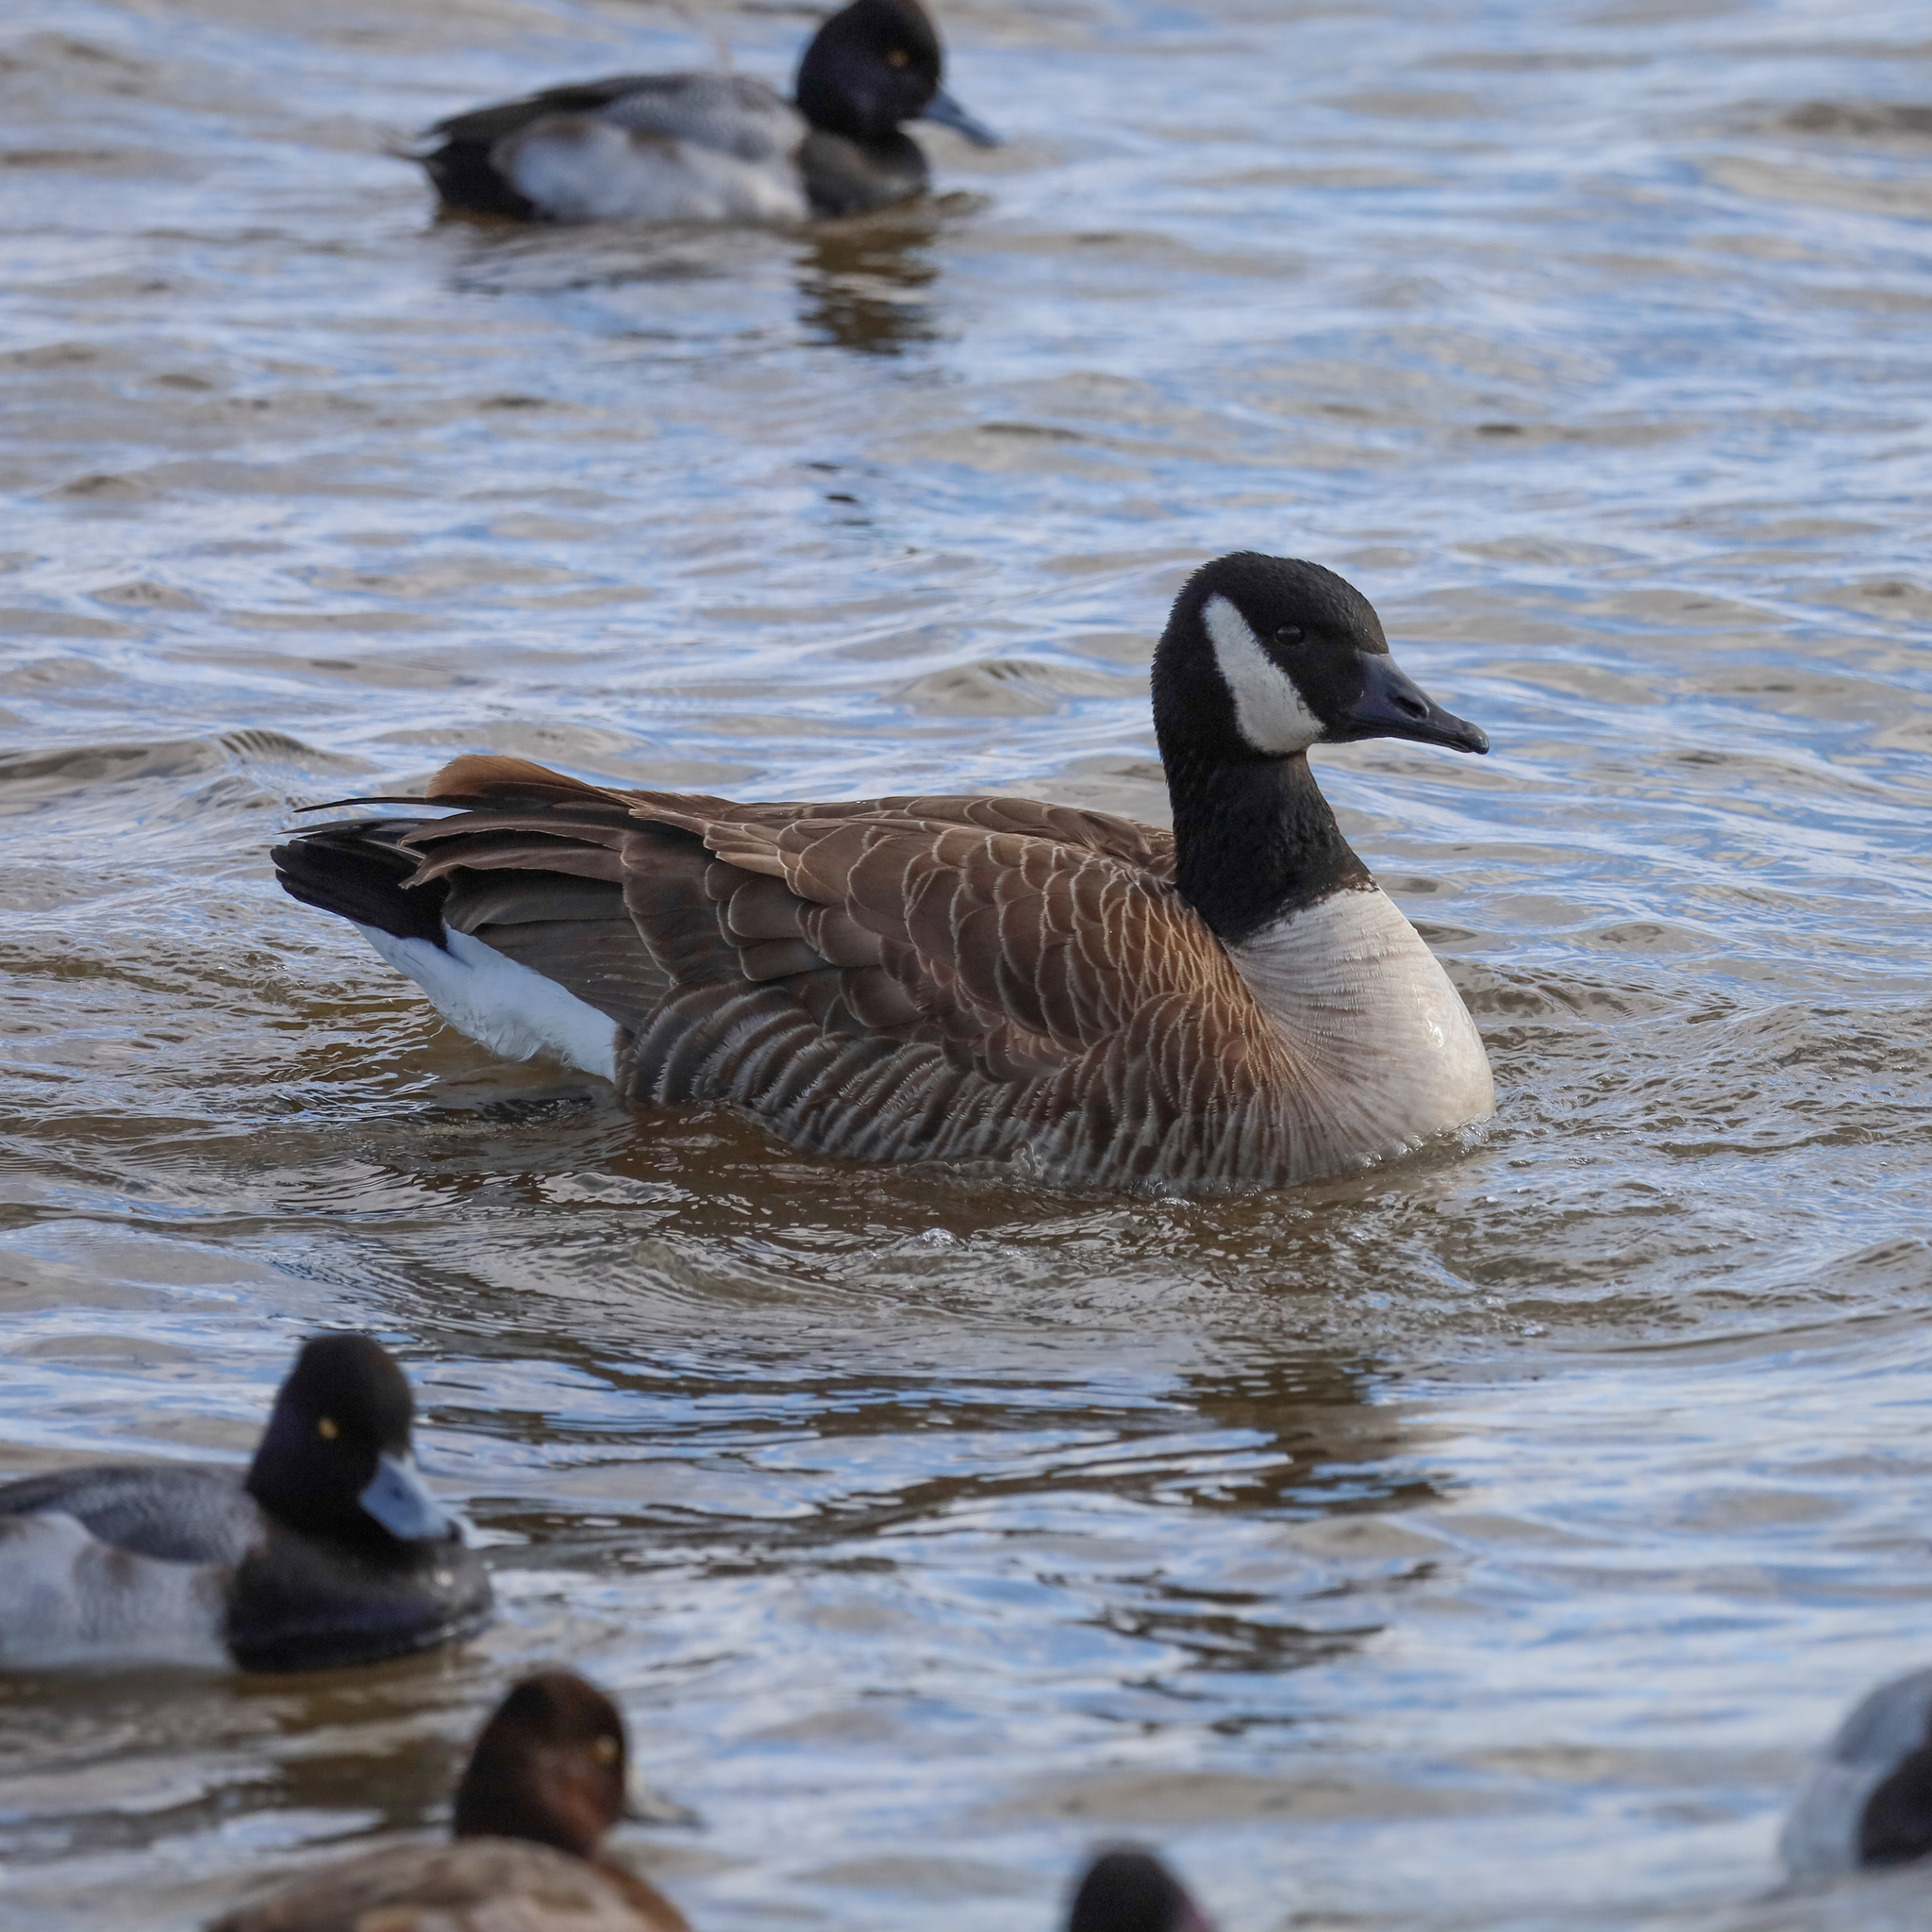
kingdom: Animalia
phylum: Chordata
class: Aves
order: Anseriformes
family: Anatidae
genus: Branta
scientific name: Branta canadensis
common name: Canada goose
